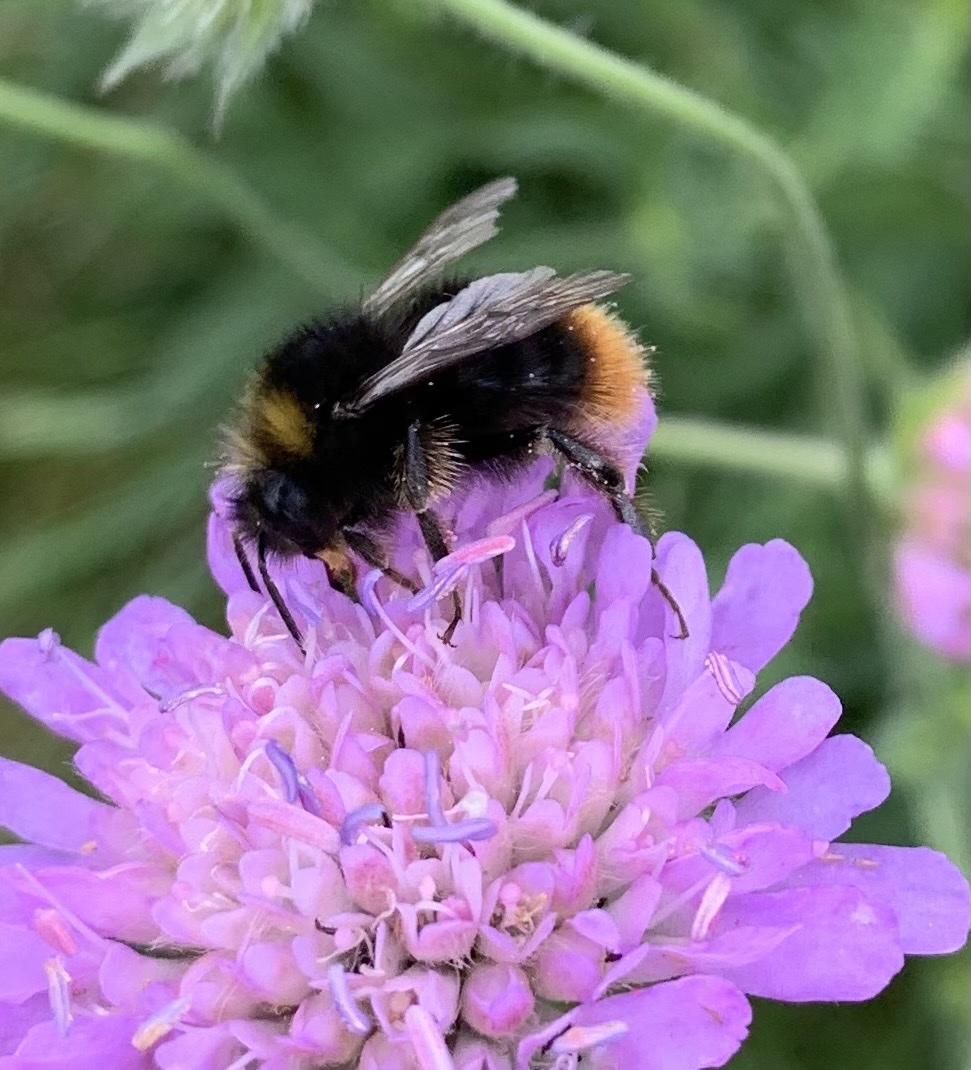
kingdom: Animalia
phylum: Arthropoda
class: Insecta
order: Hymenoptera
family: Apidae
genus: Bombus
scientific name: Bombus pratorum
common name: Early humble-bee
